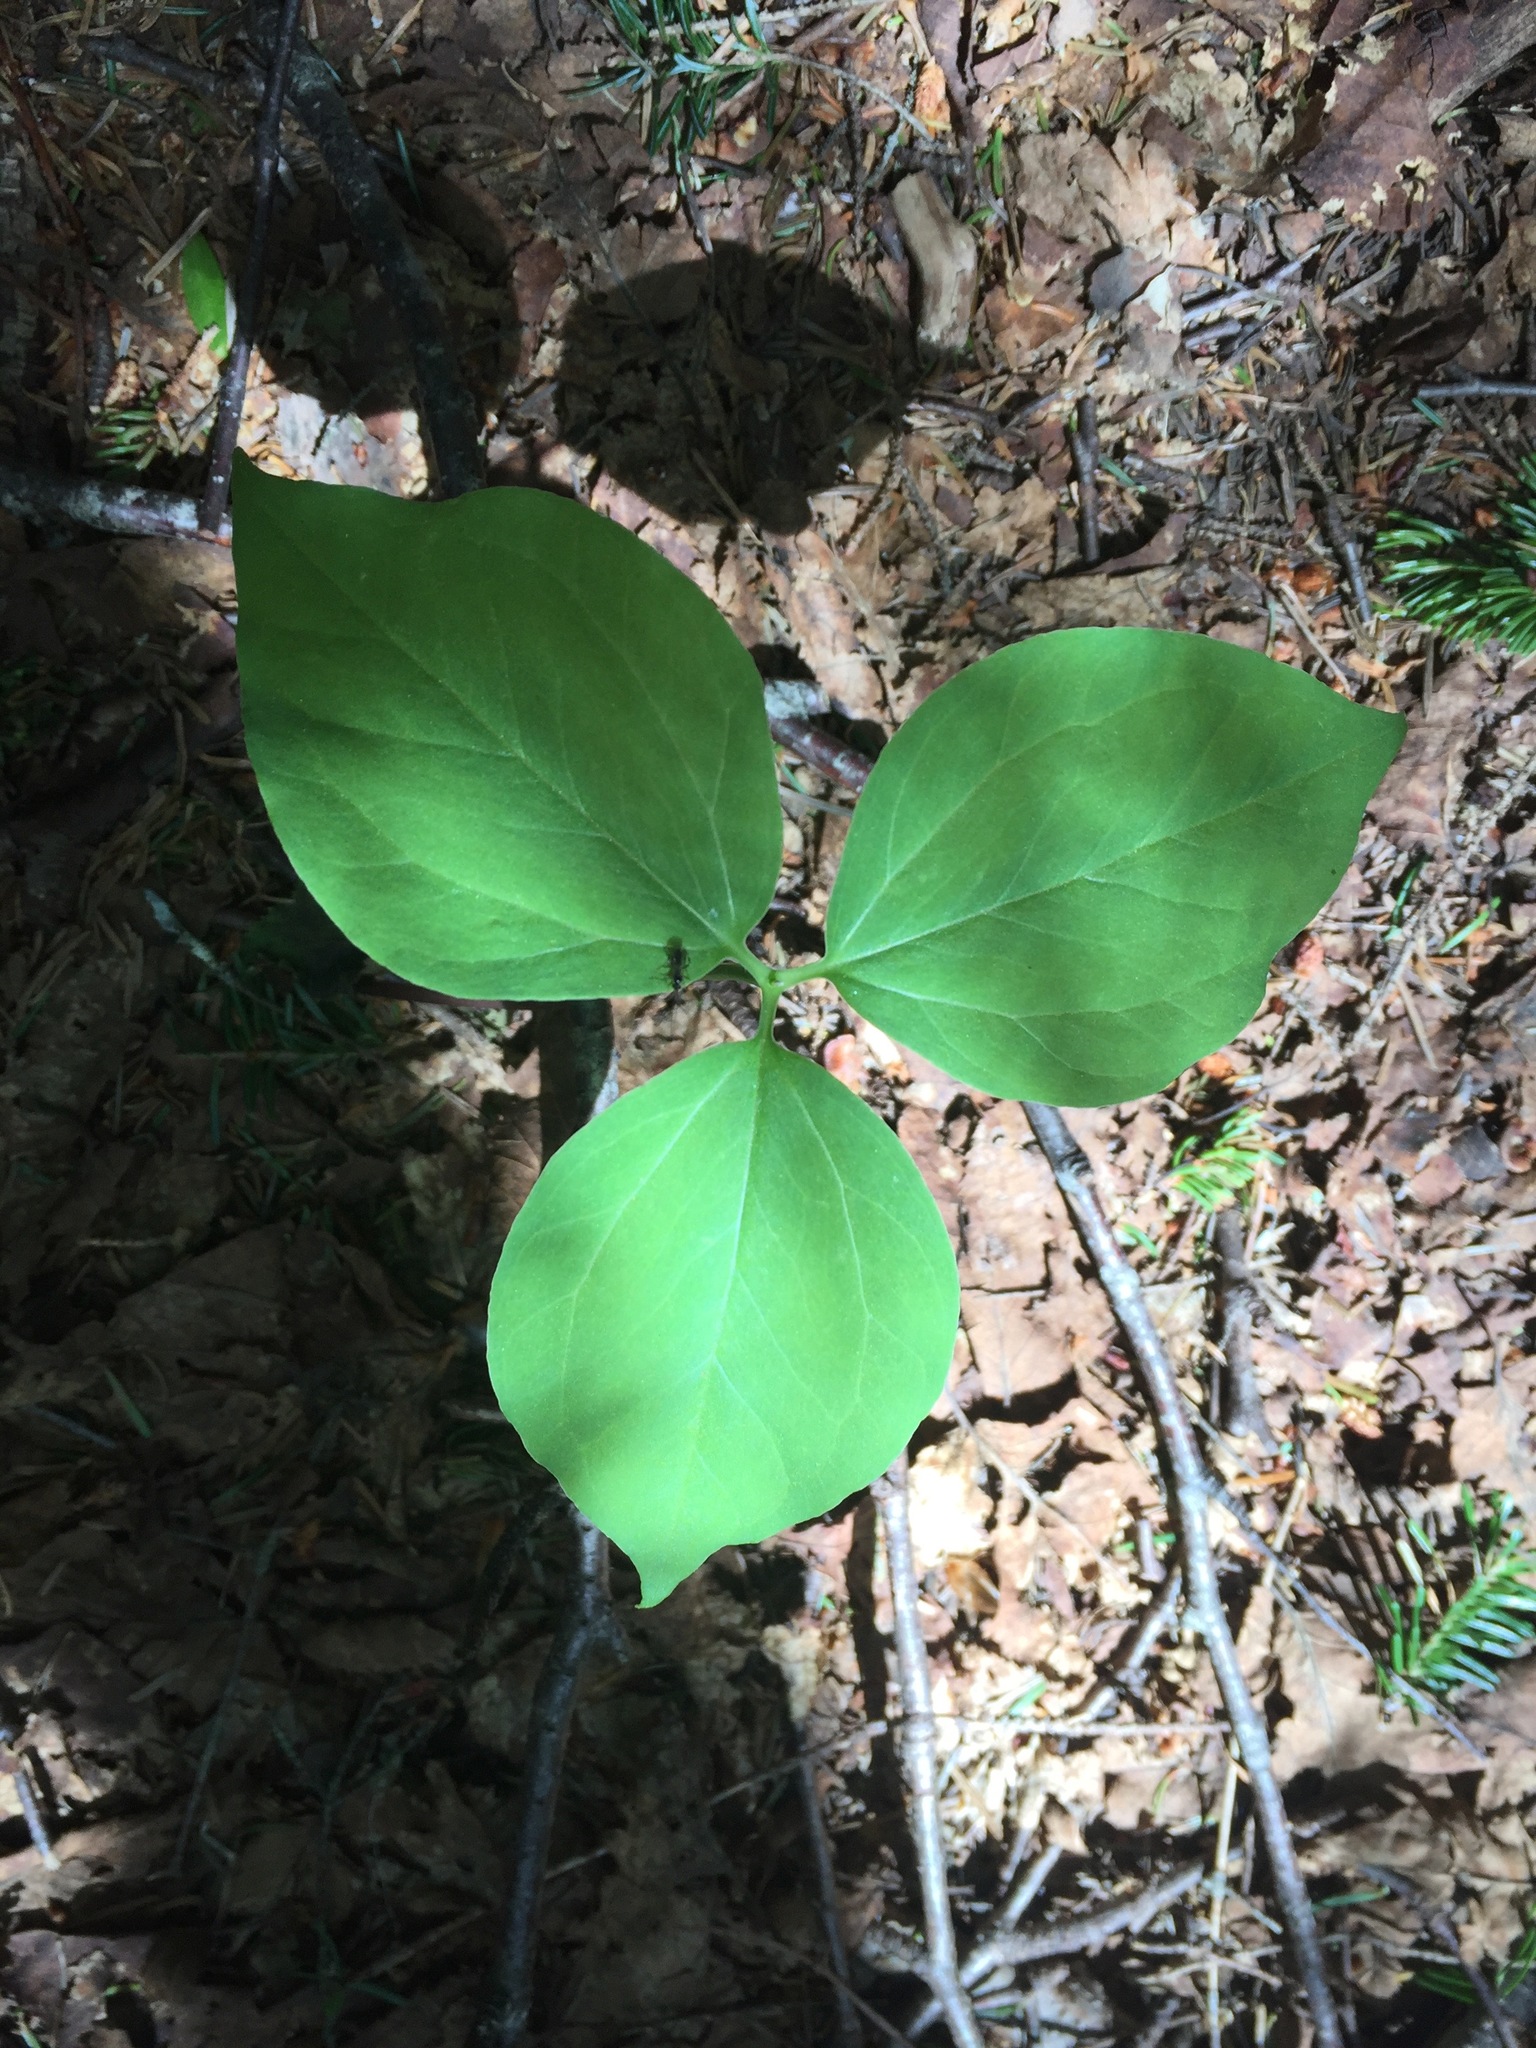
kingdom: Plantae
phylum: Tracheophyta
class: Liliopsida
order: Liliales
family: Melanthiaceae
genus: Trillium
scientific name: Trillium undulatum
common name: Paint trillium
